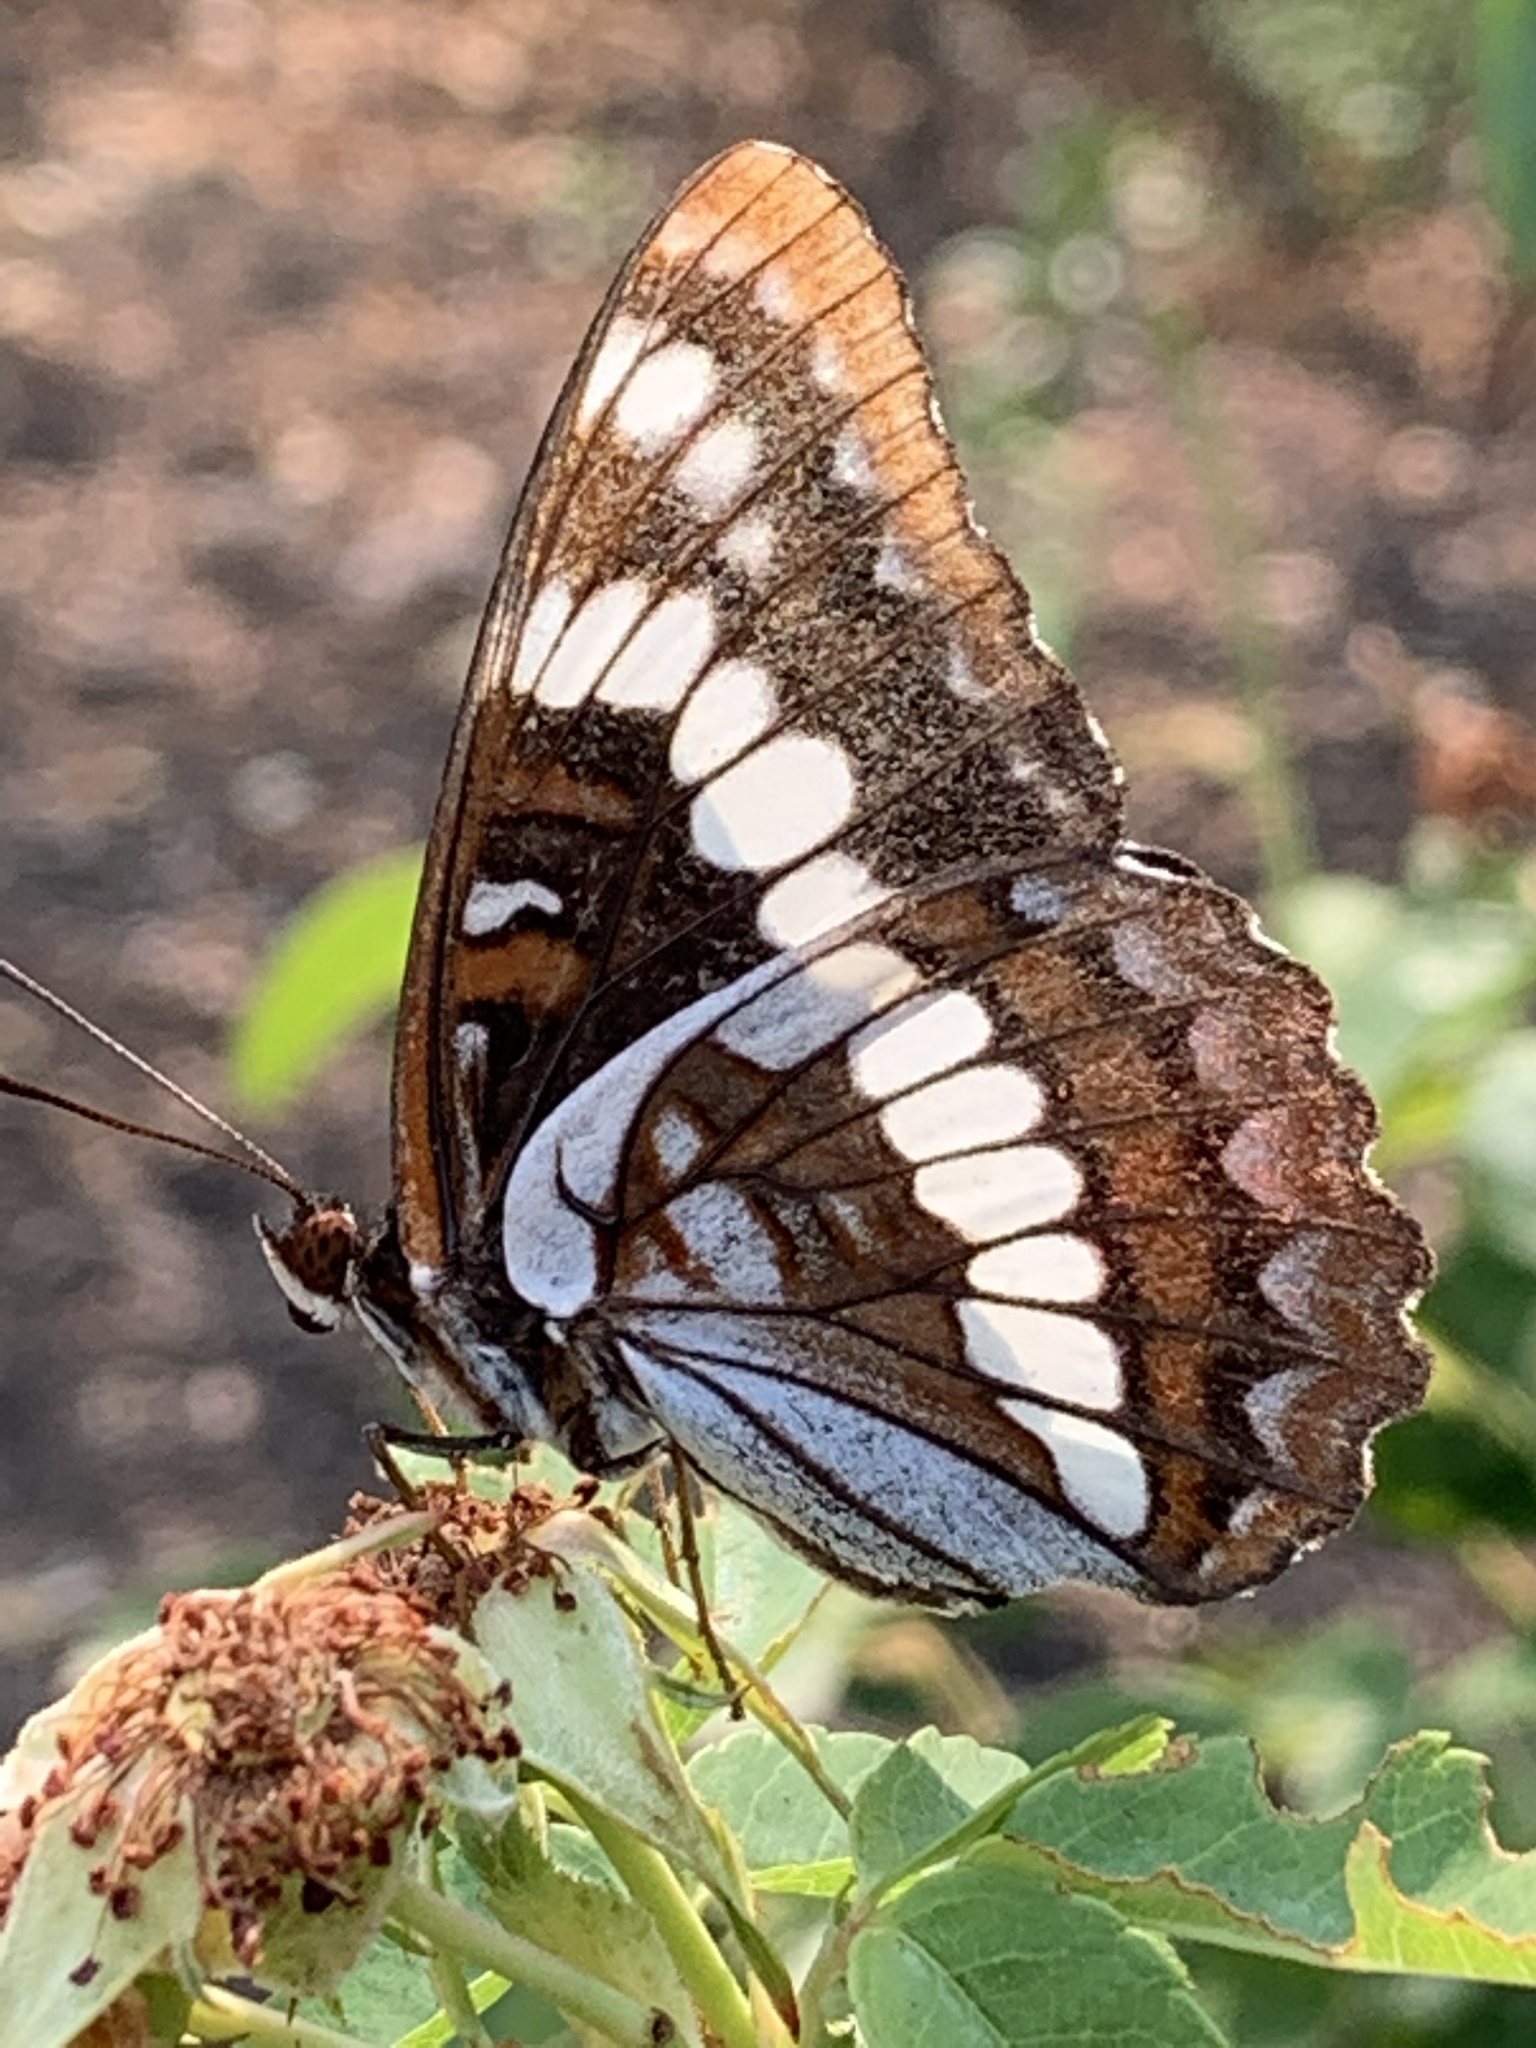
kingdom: Animalia
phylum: Arthropoda
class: Insecta
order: Lepidoptera
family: Nymphalidae
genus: Limenitis
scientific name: Limenitis lorquini
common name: Lorquin's admiral
